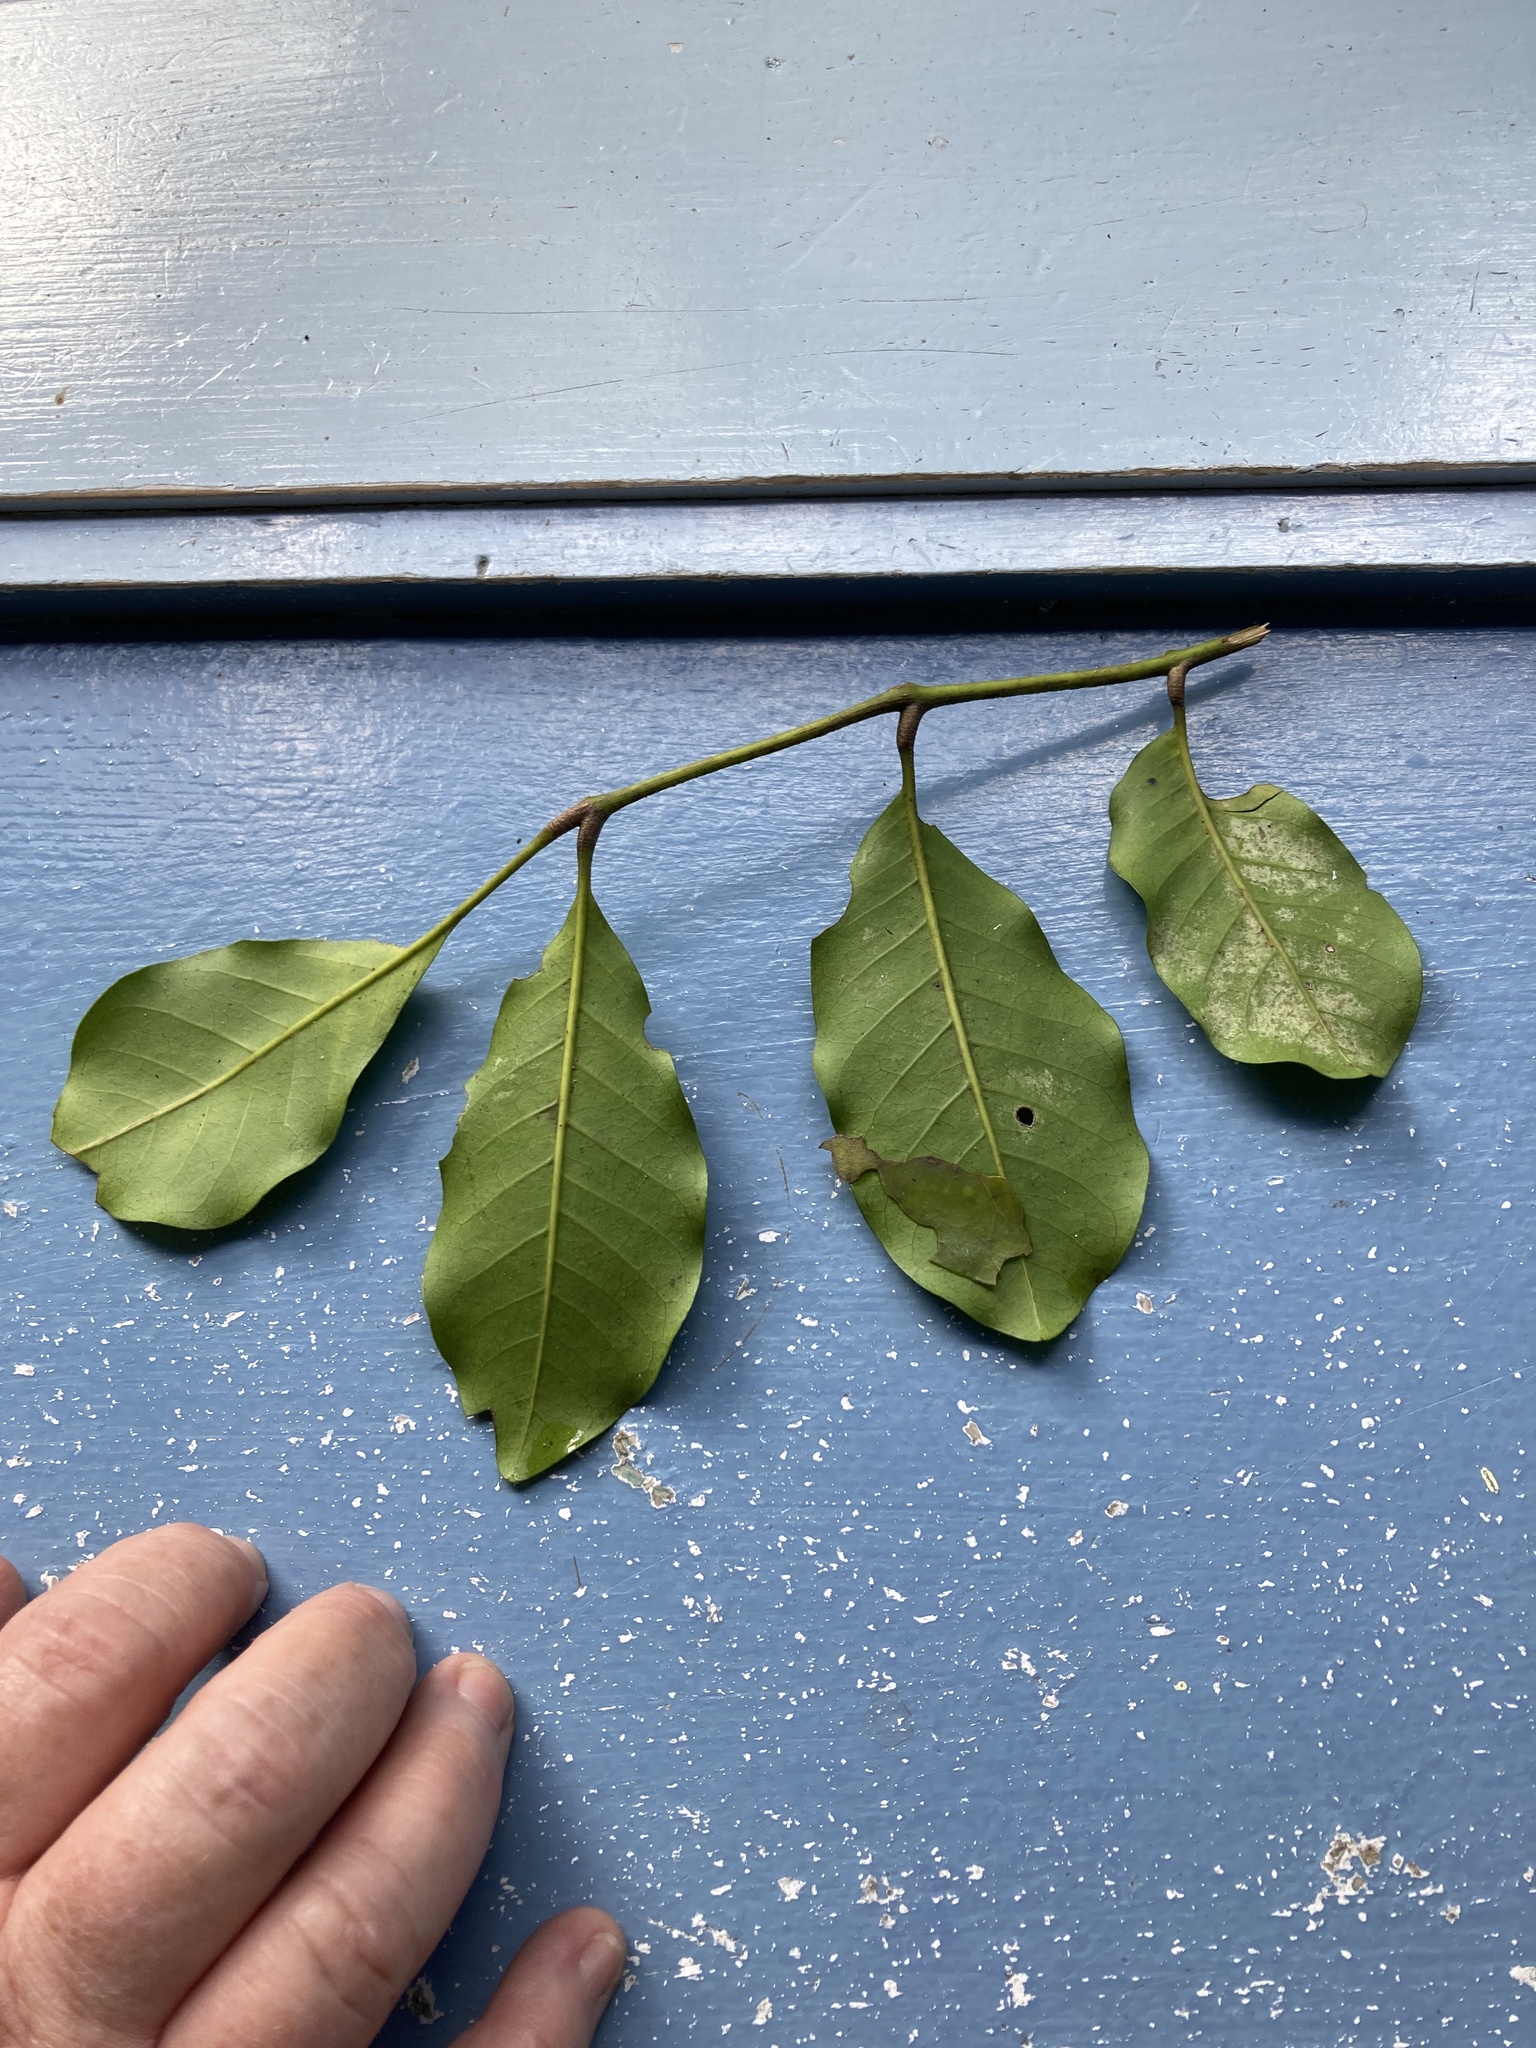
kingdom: Plantae
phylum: Tracheophyta
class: Magnoliopsida
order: Sapindales
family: Meliaceae
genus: Didymocheton
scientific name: Didymocheton spectabilis
